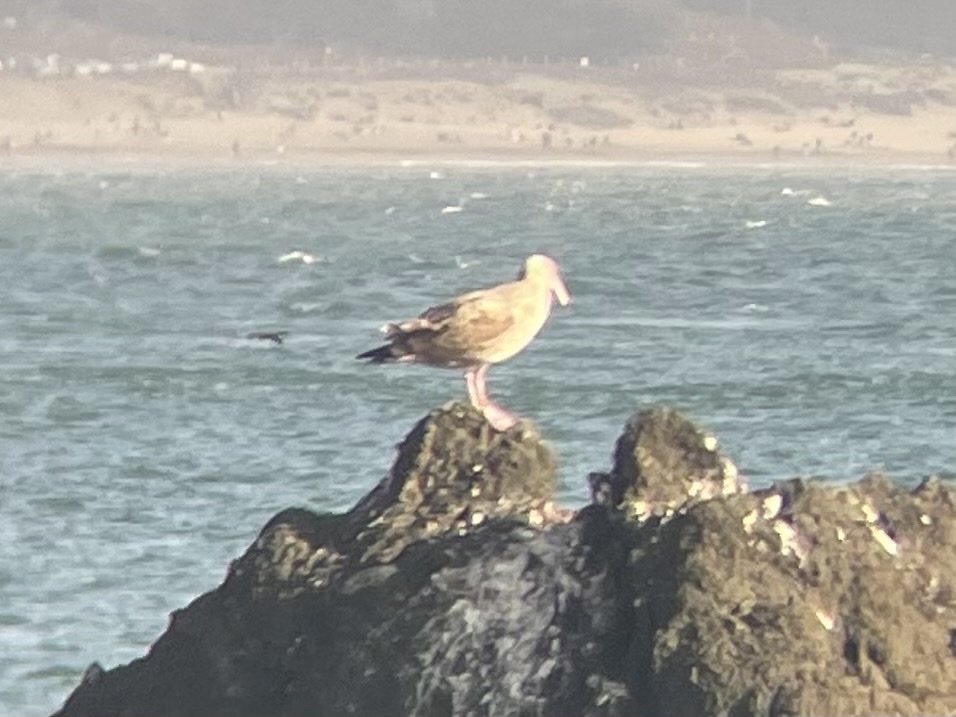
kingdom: Animalia
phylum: Chordata
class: Aves
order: Charadriiformes
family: Laridae
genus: Larus
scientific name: Larus occidentalis
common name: Western gull
